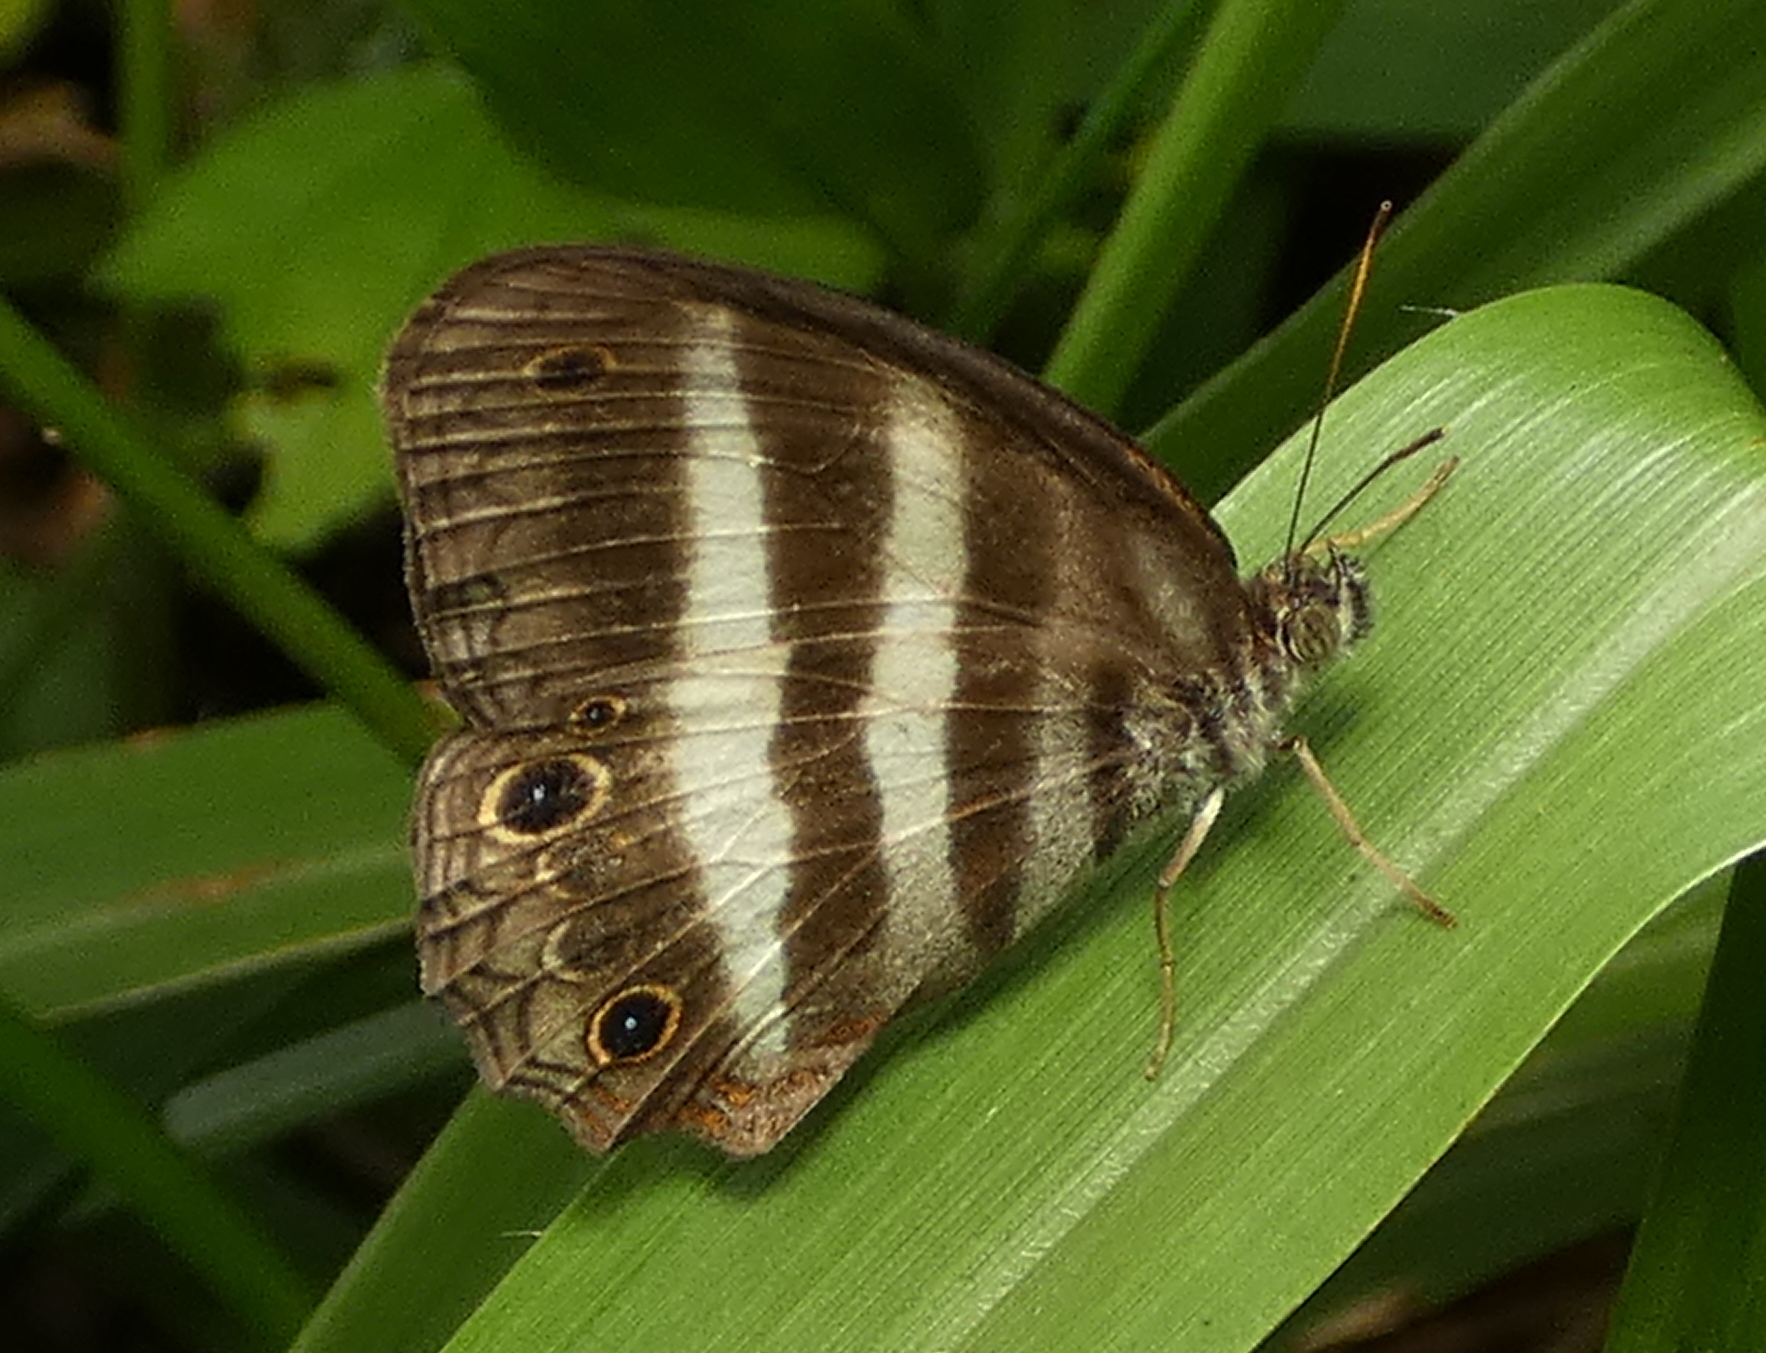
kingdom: Animalia
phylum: Arthropoda
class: Insecta
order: Lepidoptera
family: Nymphalidae
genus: Pareuptychia
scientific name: Pareuptychia hesione
